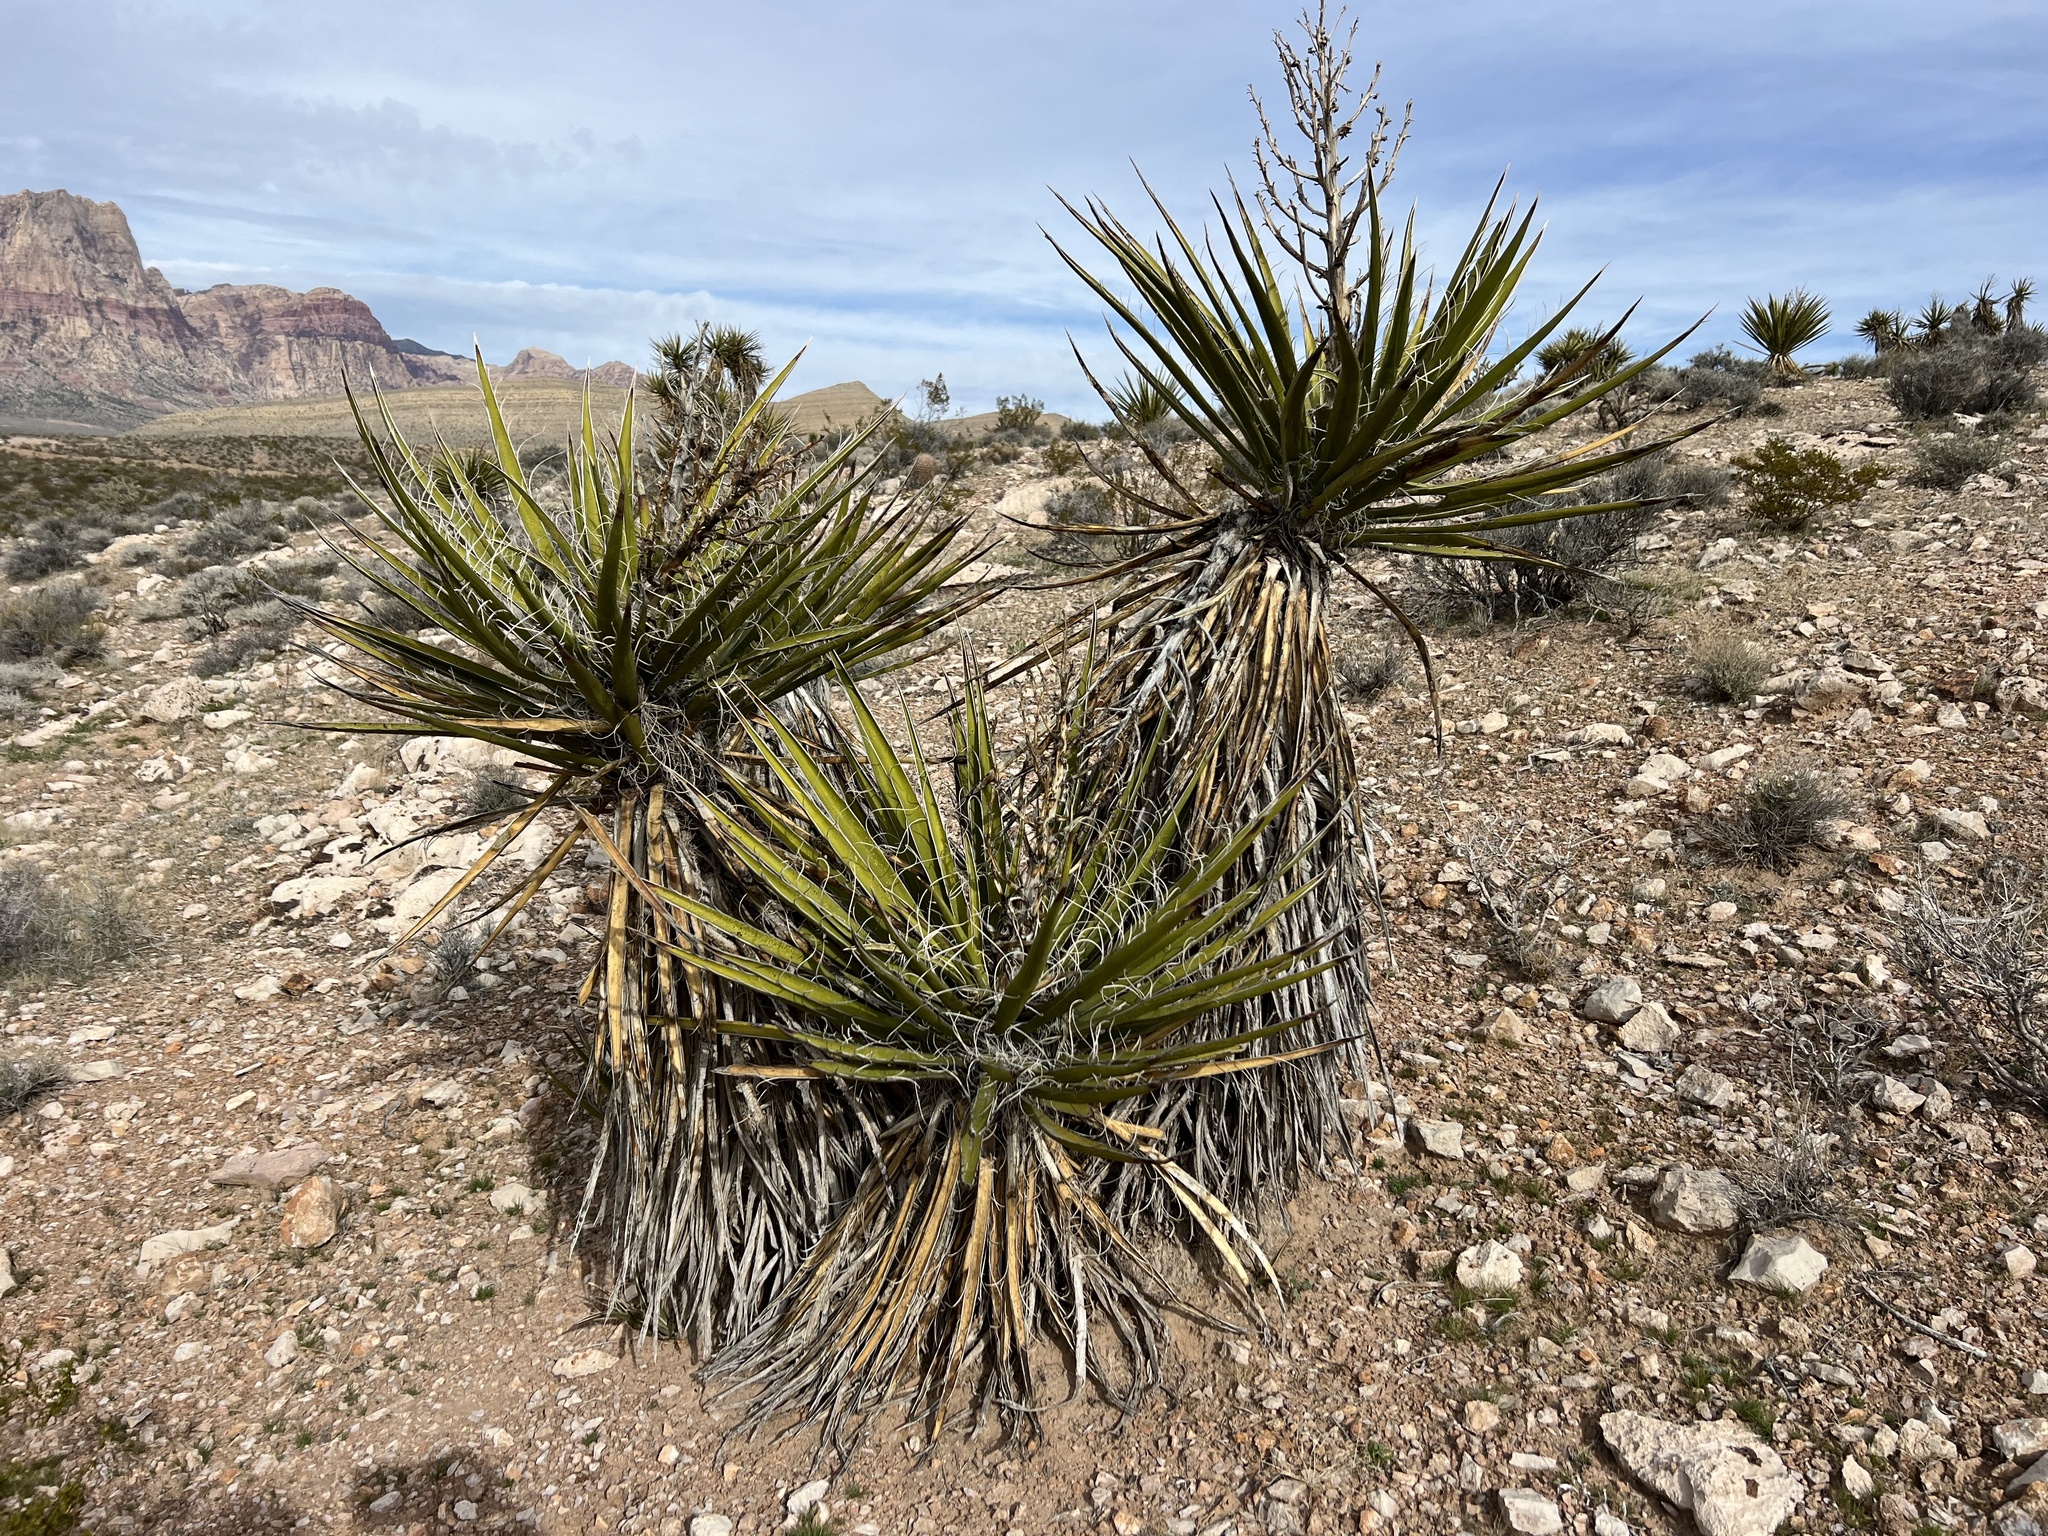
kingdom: Plantae
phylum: Tracheophyta
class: Liliopsida
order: Asparagales
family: Asparagaceae
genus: Yucca
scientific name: Yucca schidigera
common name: Mojave yucca
